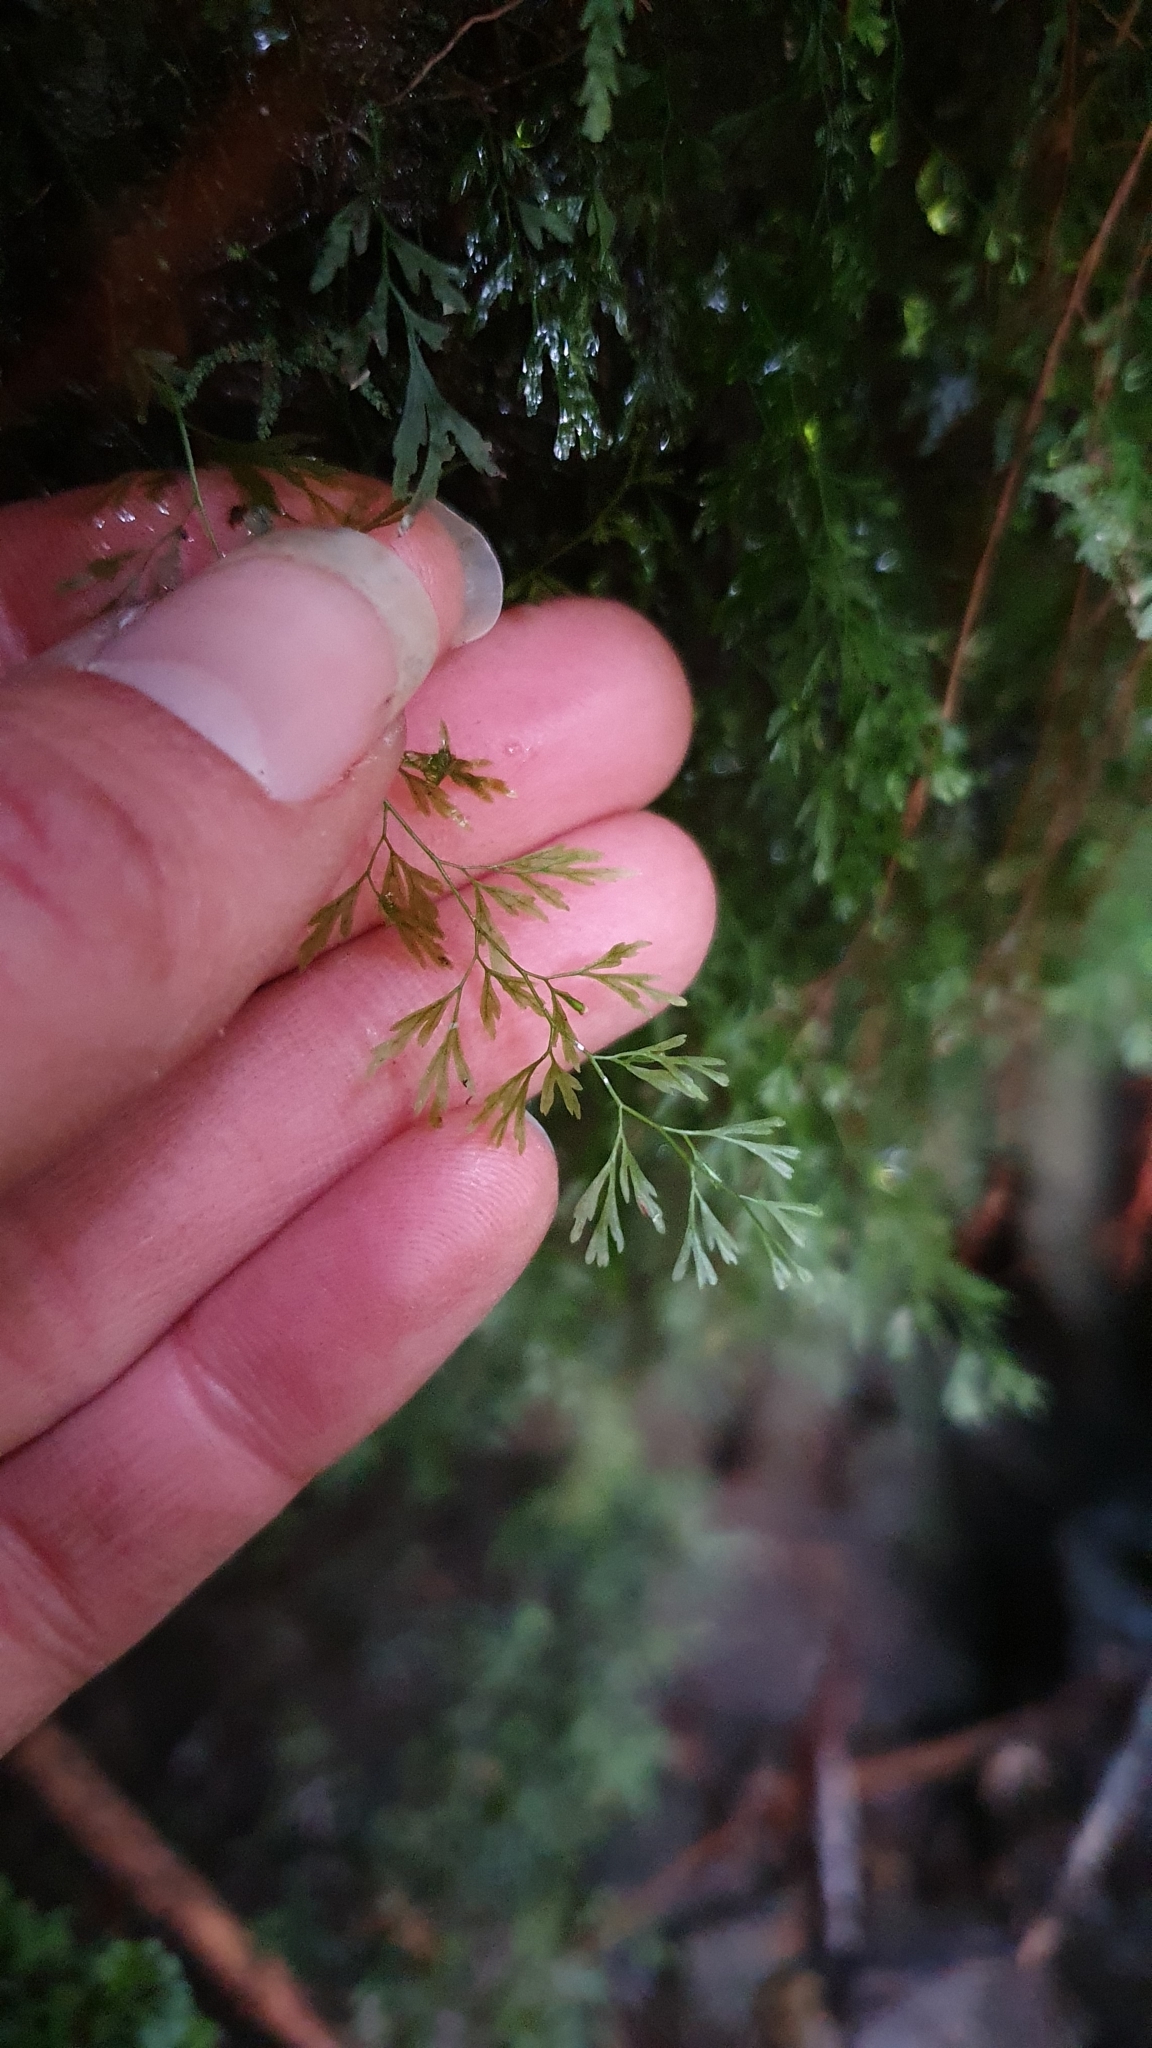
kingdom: Plantae
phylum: Tracheophyta
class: Polypodiopsida
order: Hymenophyllales
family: Hymenophyllaceae
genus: Polyphlebium
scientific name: Polyphlebium colensoi
